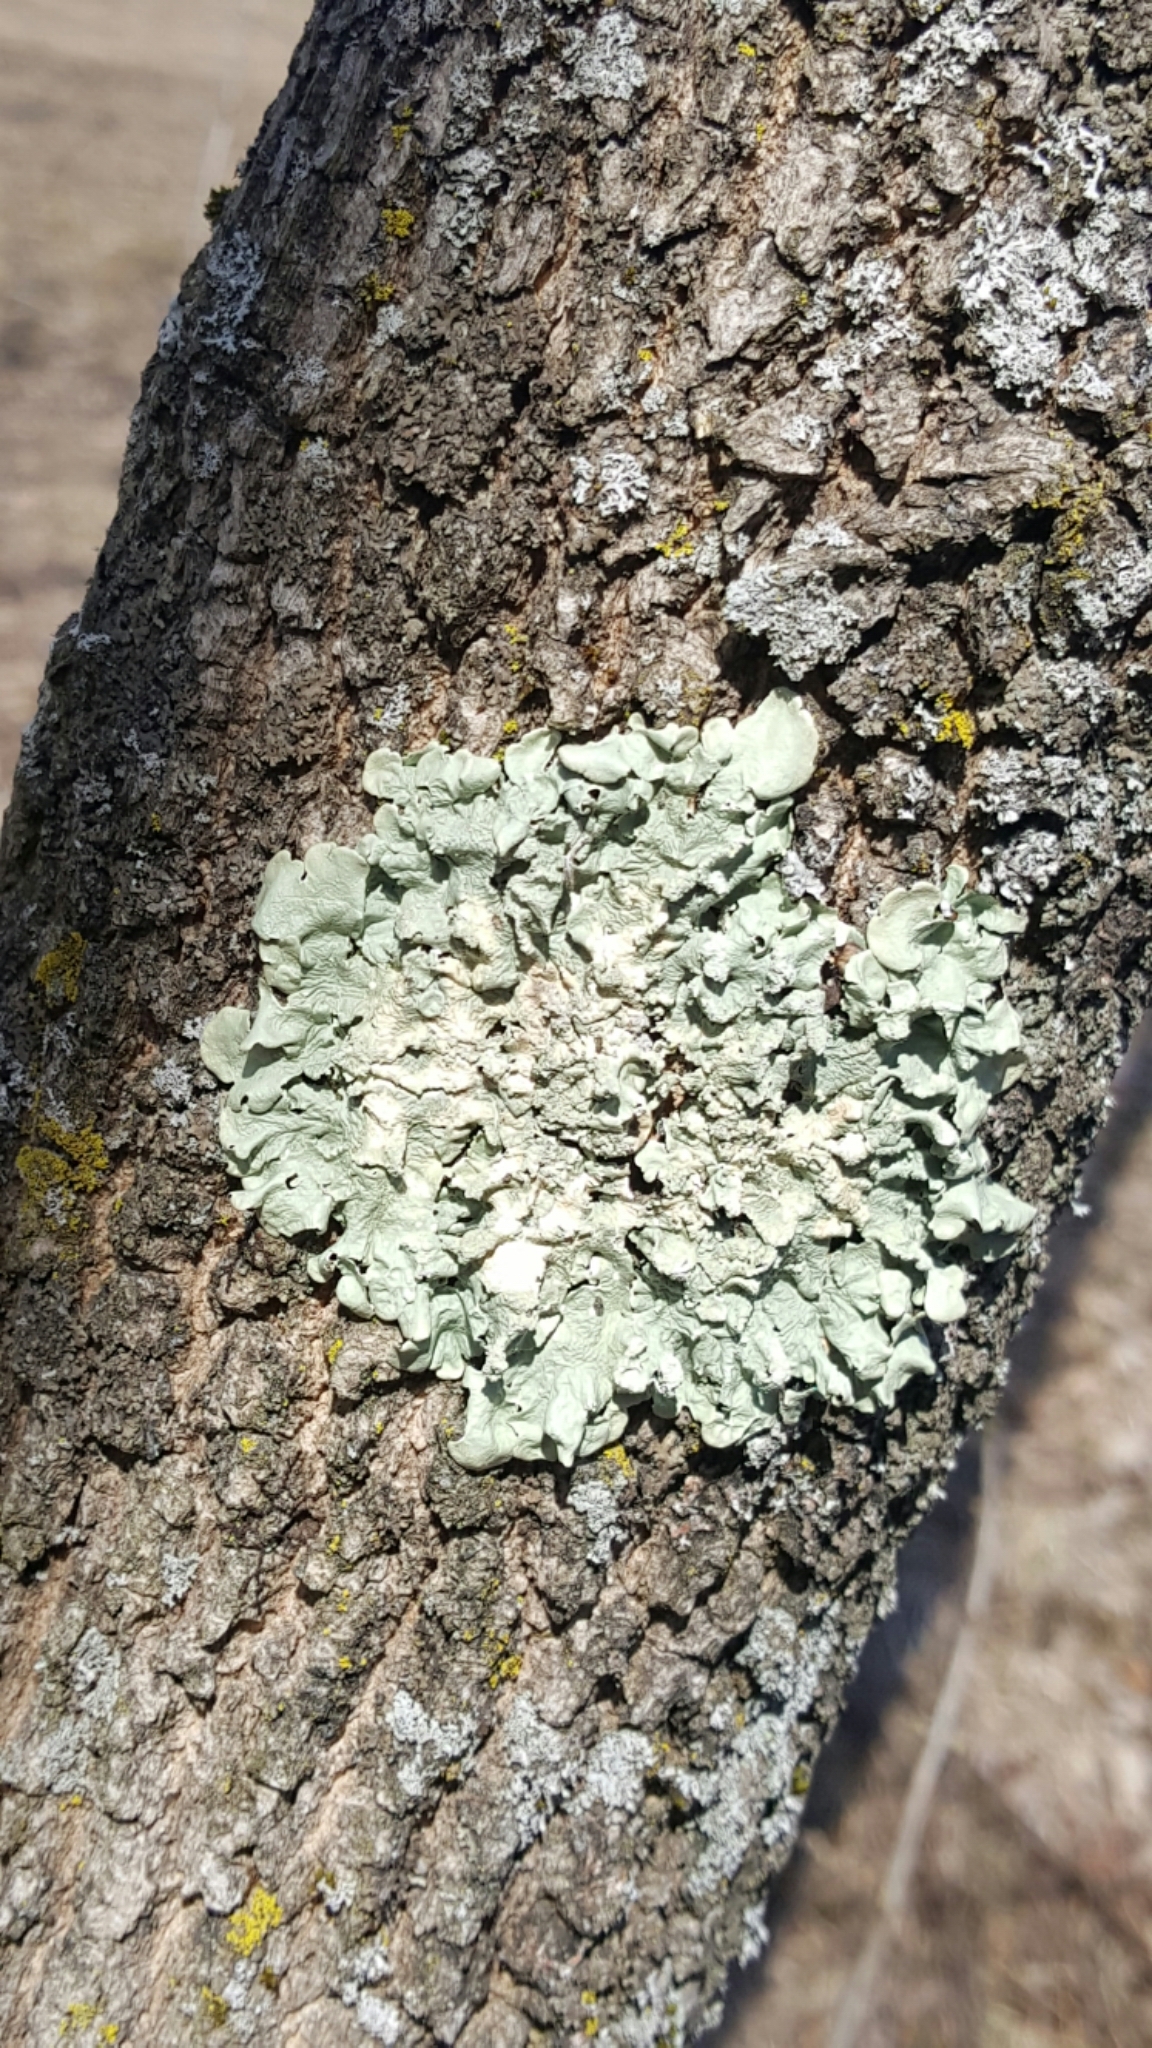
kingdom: Fungi
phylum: Ascomycota
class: Lecanoromycetes
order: Lecanorales
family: Parmeliaceae
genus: Flavoparmelia
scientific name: Flavoparmelia caperata
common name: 40-mile per hour lichen
